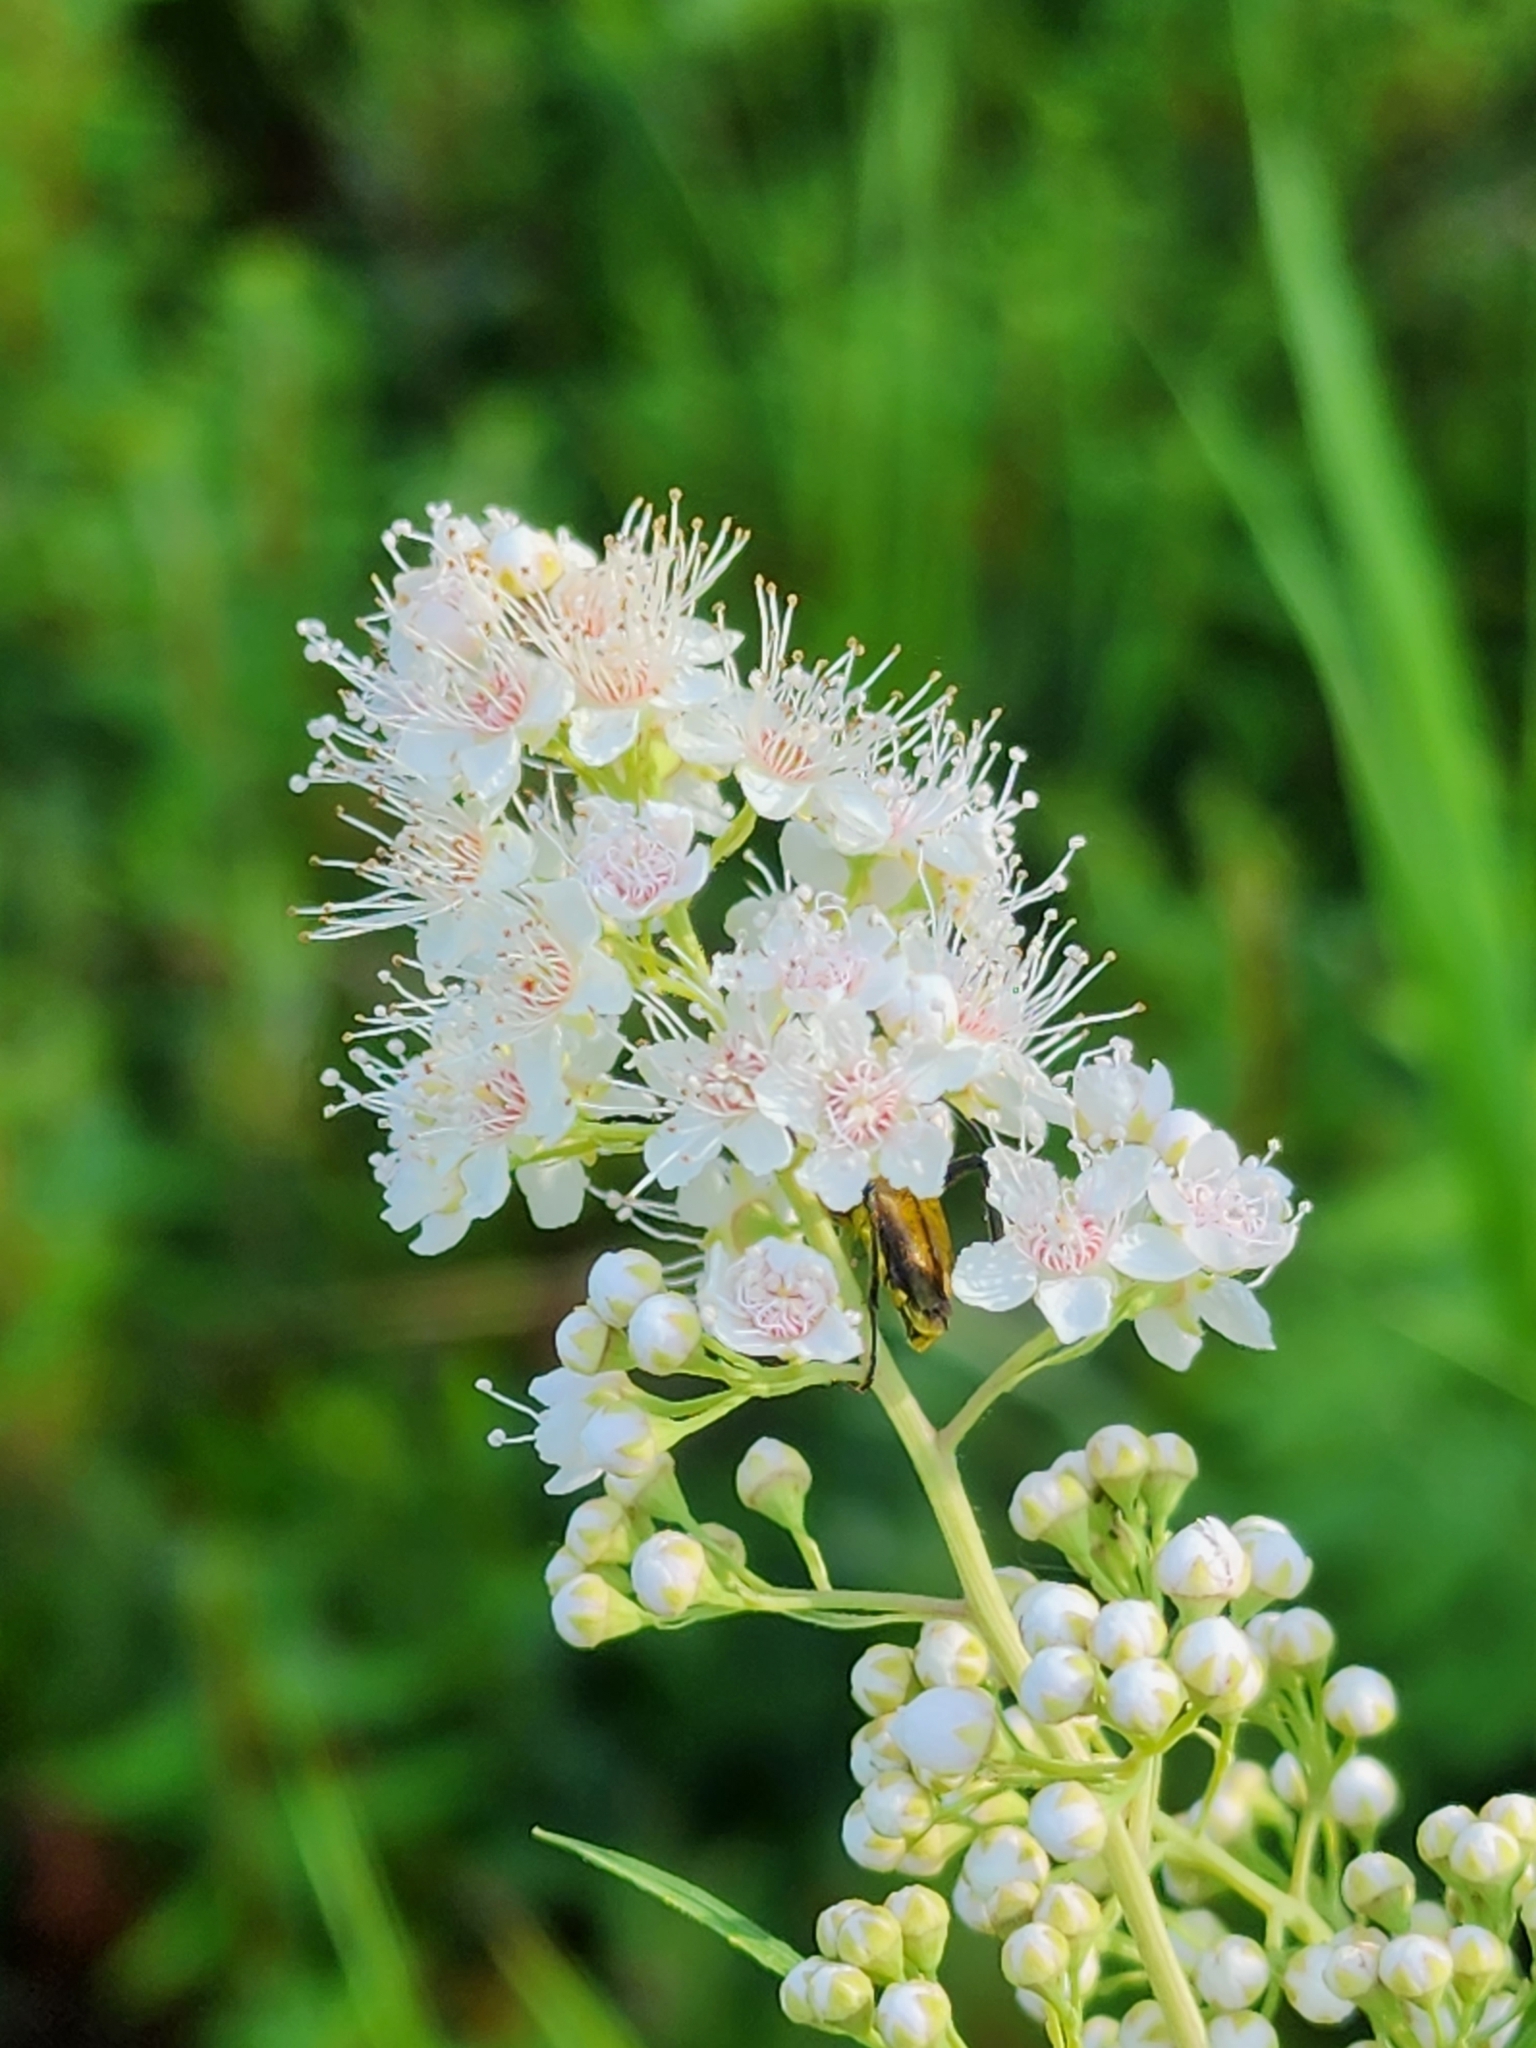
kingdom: Plantae
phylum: Tracheophyta
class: Magnoliopsida
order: Rosales
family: Rosaceae
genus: Spiraea
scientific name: Spiraea alba
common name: Pale bridewort
